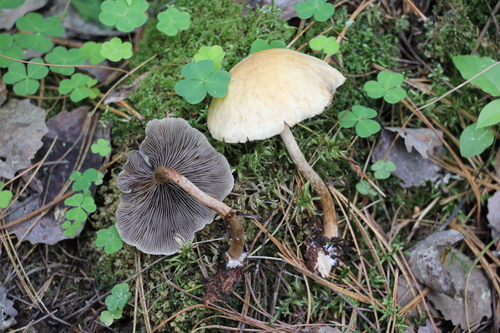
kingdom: Fungi
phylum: Basidiomycota
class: Agaricomycetes
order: Agaricales
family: Strophariaceae
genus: Hypholoma
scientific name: Hypholoma capnoides
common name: Conifer tuft
